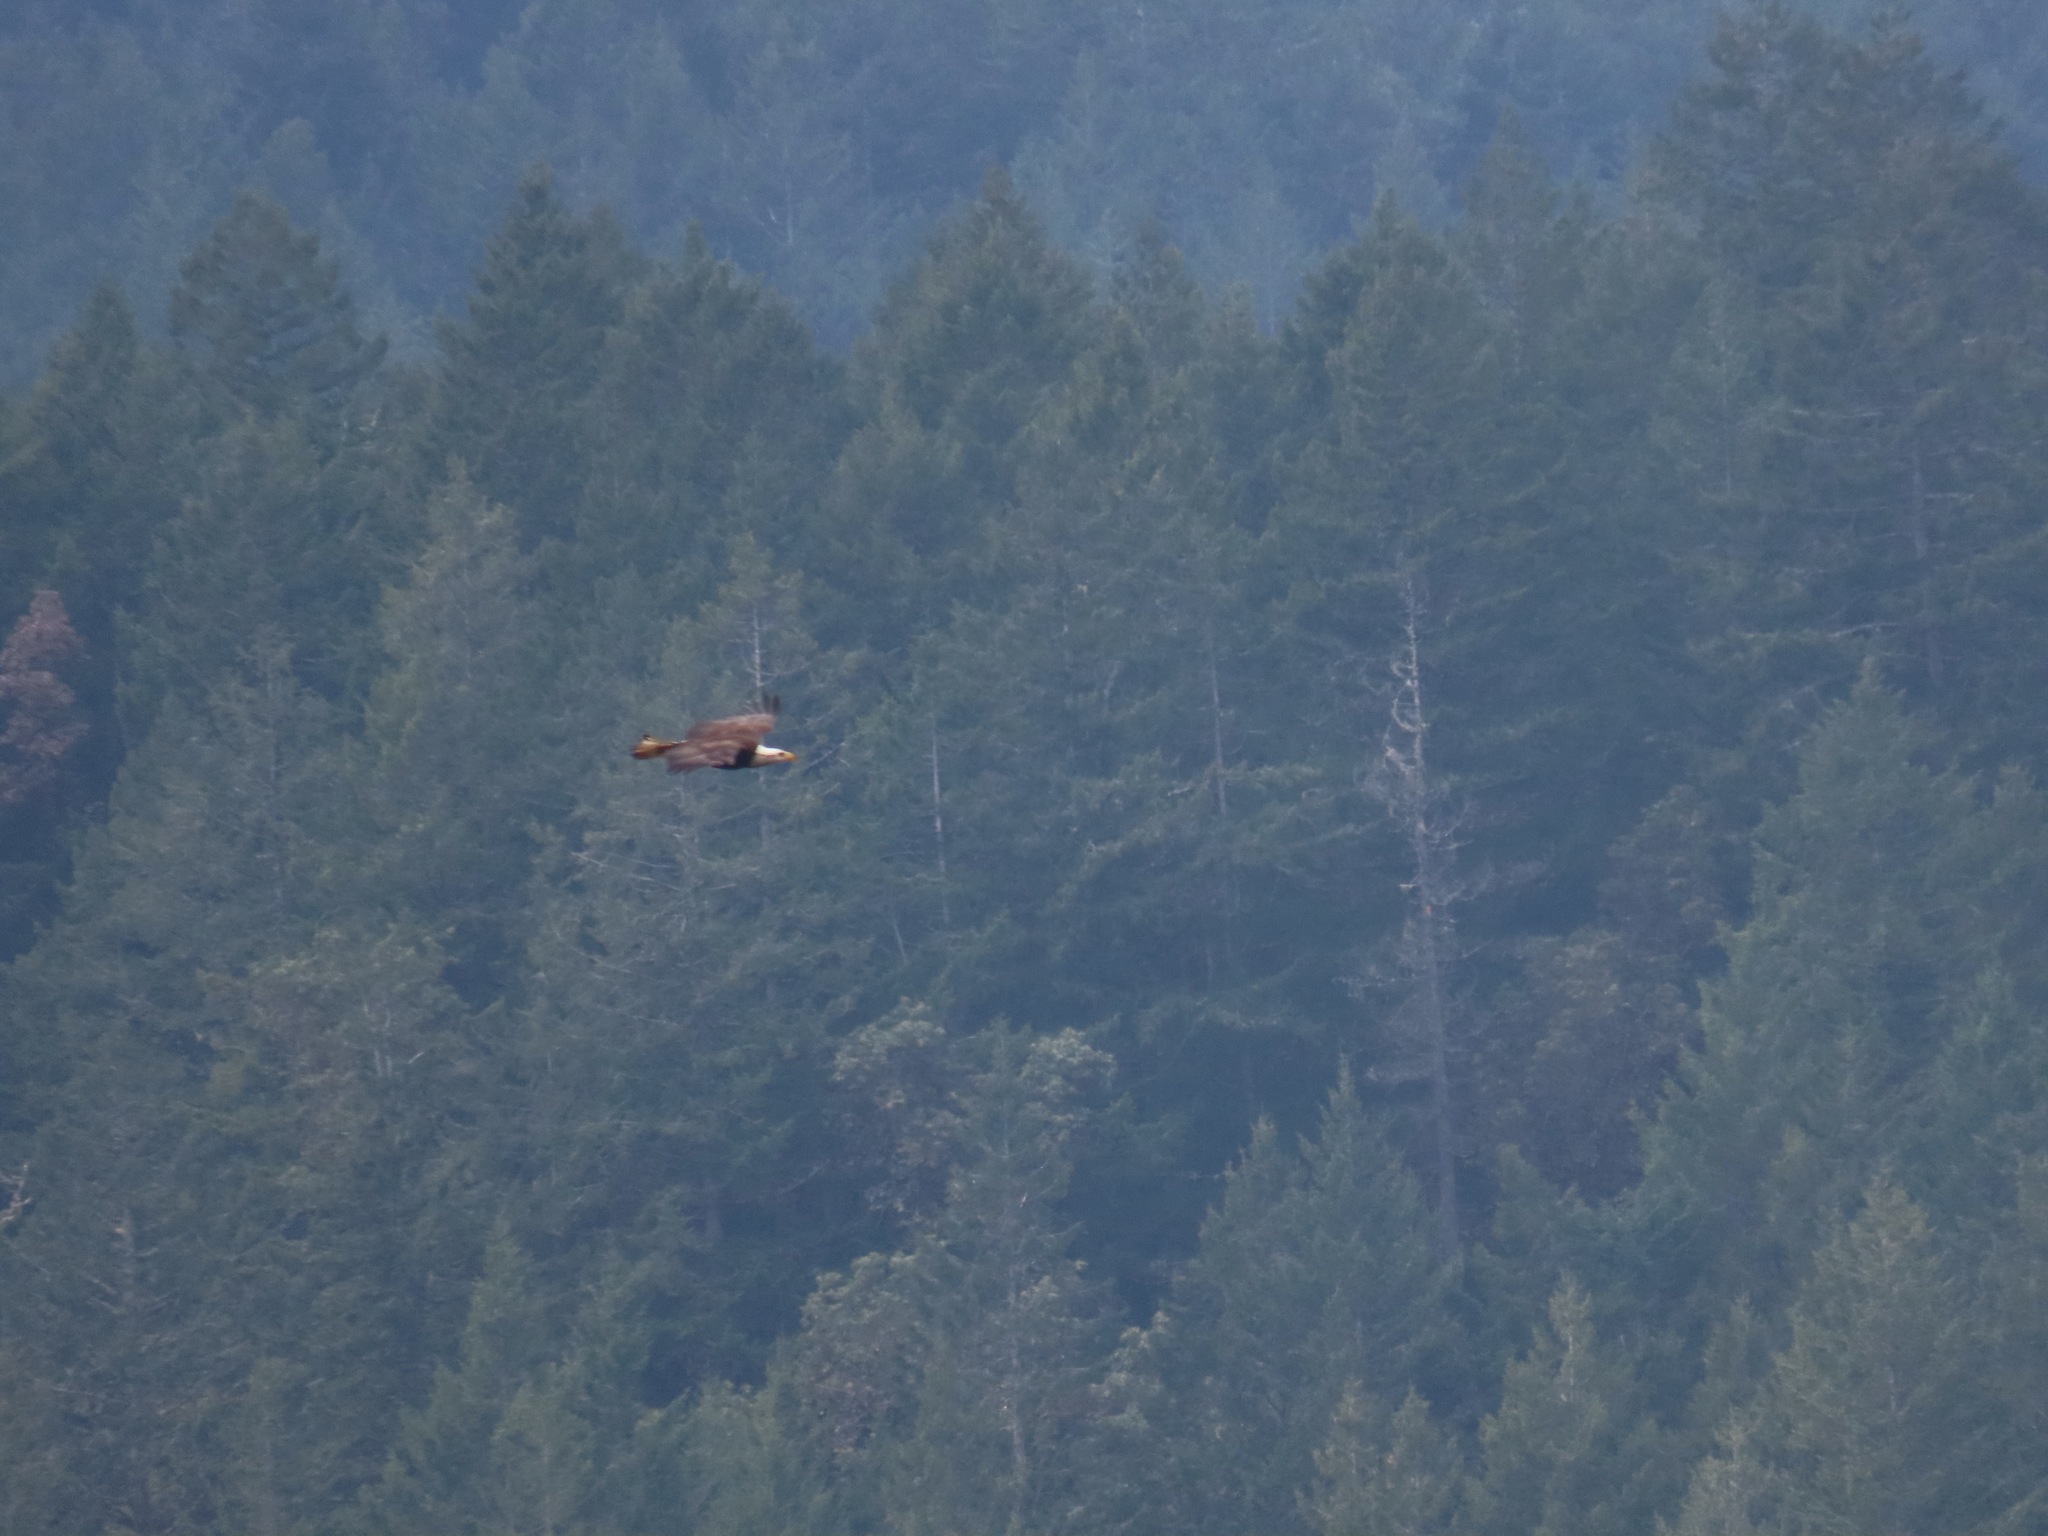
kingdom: Animalia
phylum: Chordata
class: Aves
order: Accipitriformes
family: Accipitridae
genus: Haliaeetus
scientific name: Haliaeetus leucocephalus
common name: Bald eagle
